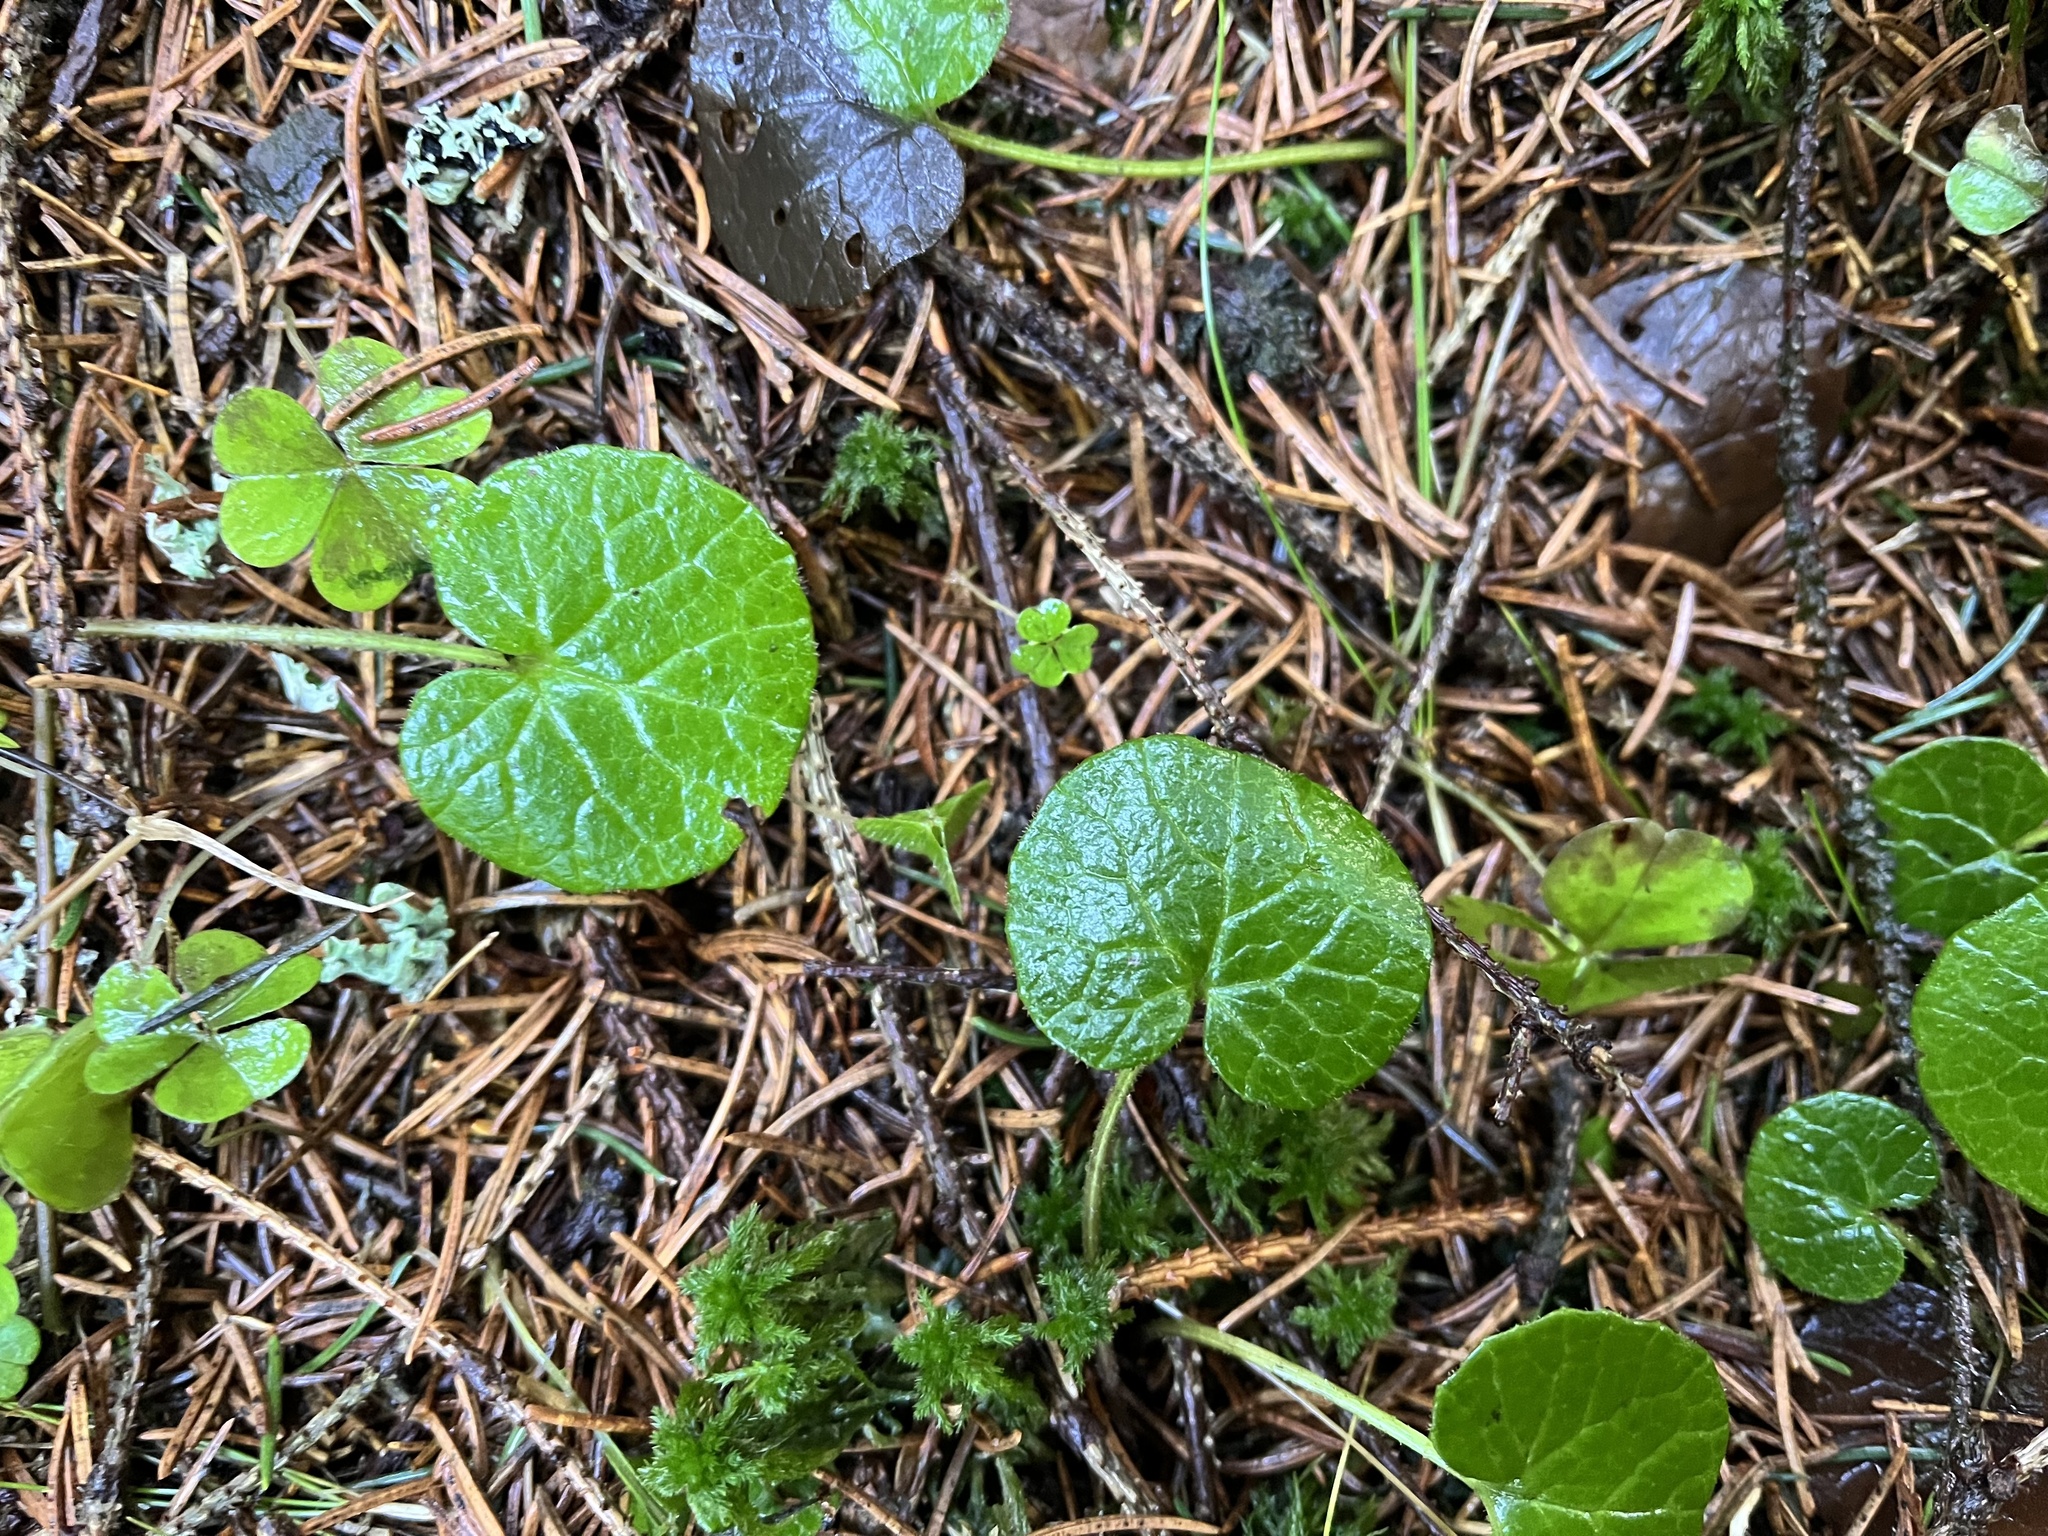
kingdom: Plantae
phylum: Tracheophyta
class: Magnoliopsida
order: Asterales
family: Asteraceae
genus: Homogyne
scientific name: Homogyne alpina
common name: Purple colt's-foot
